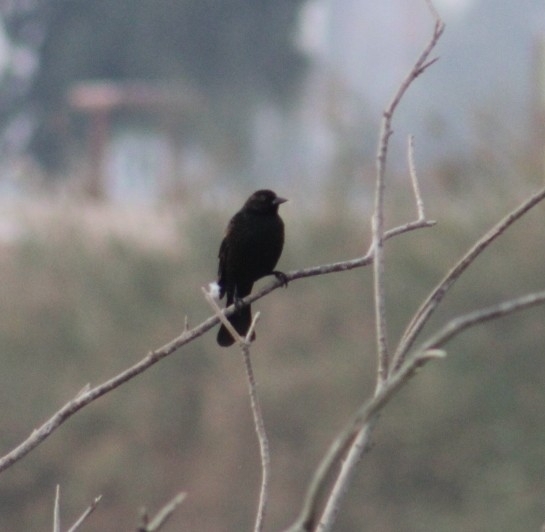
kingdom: Animalia
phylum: Chordata
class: Aves
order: Passeriformes
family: Icteridae
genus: Agelaius
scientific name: Agelaius phoeniceus
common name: Red-winged blackbird
